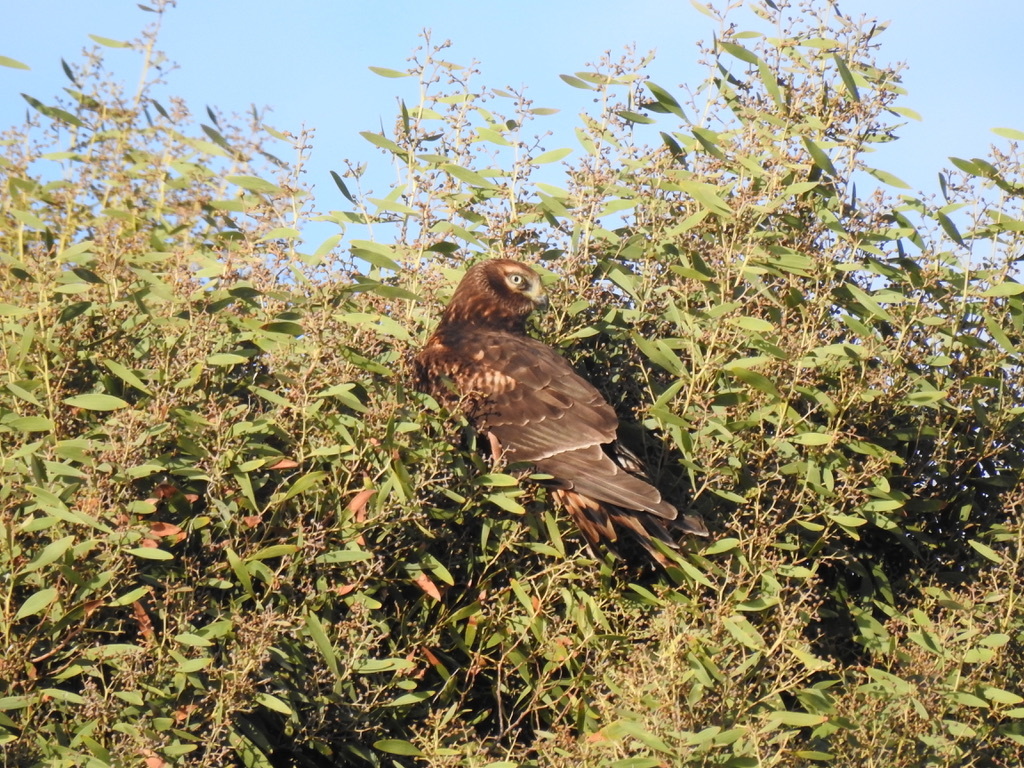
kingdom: Animalia
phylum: Chordata
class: Aves
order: Accipitriformes
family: Accipitridae
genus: Circus
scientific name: Circus cyaneus
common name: Hen harrier
